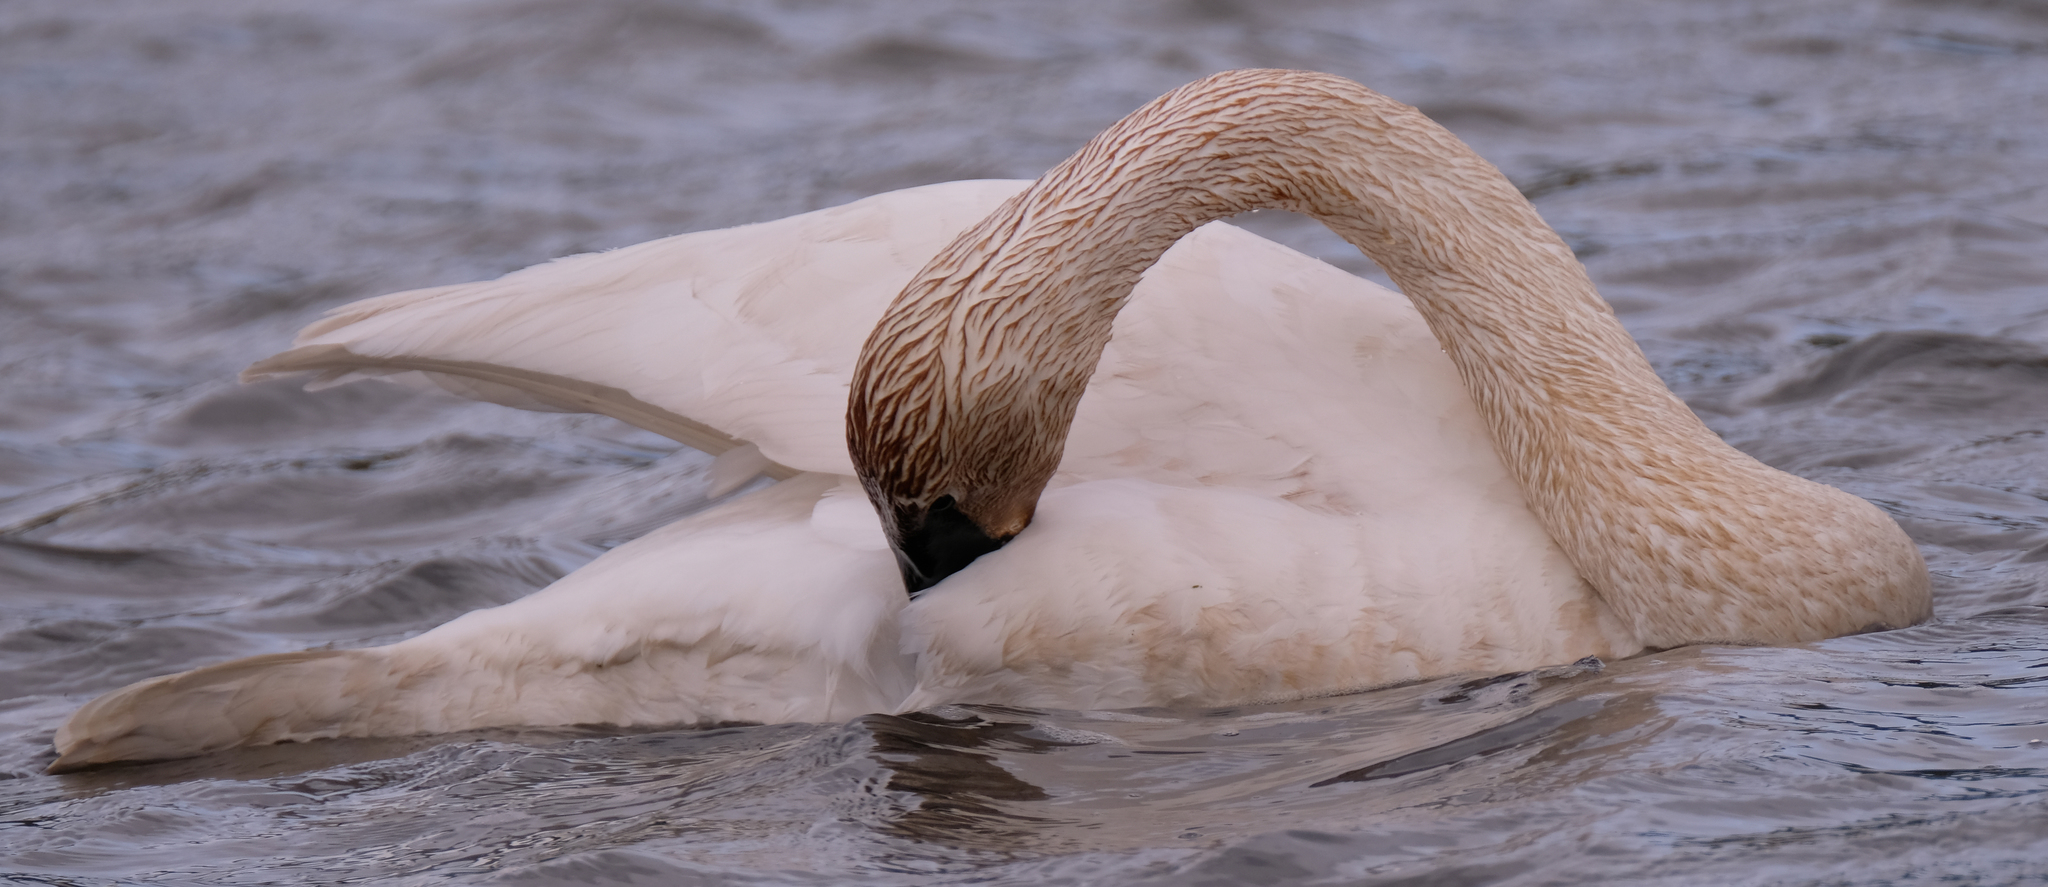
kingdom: Animalia
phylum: Chordata
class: Aves
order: Anseriformes
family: Anatidae
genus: Cygnus
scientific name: Cygnus buccinator
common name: Trumpeter swan
